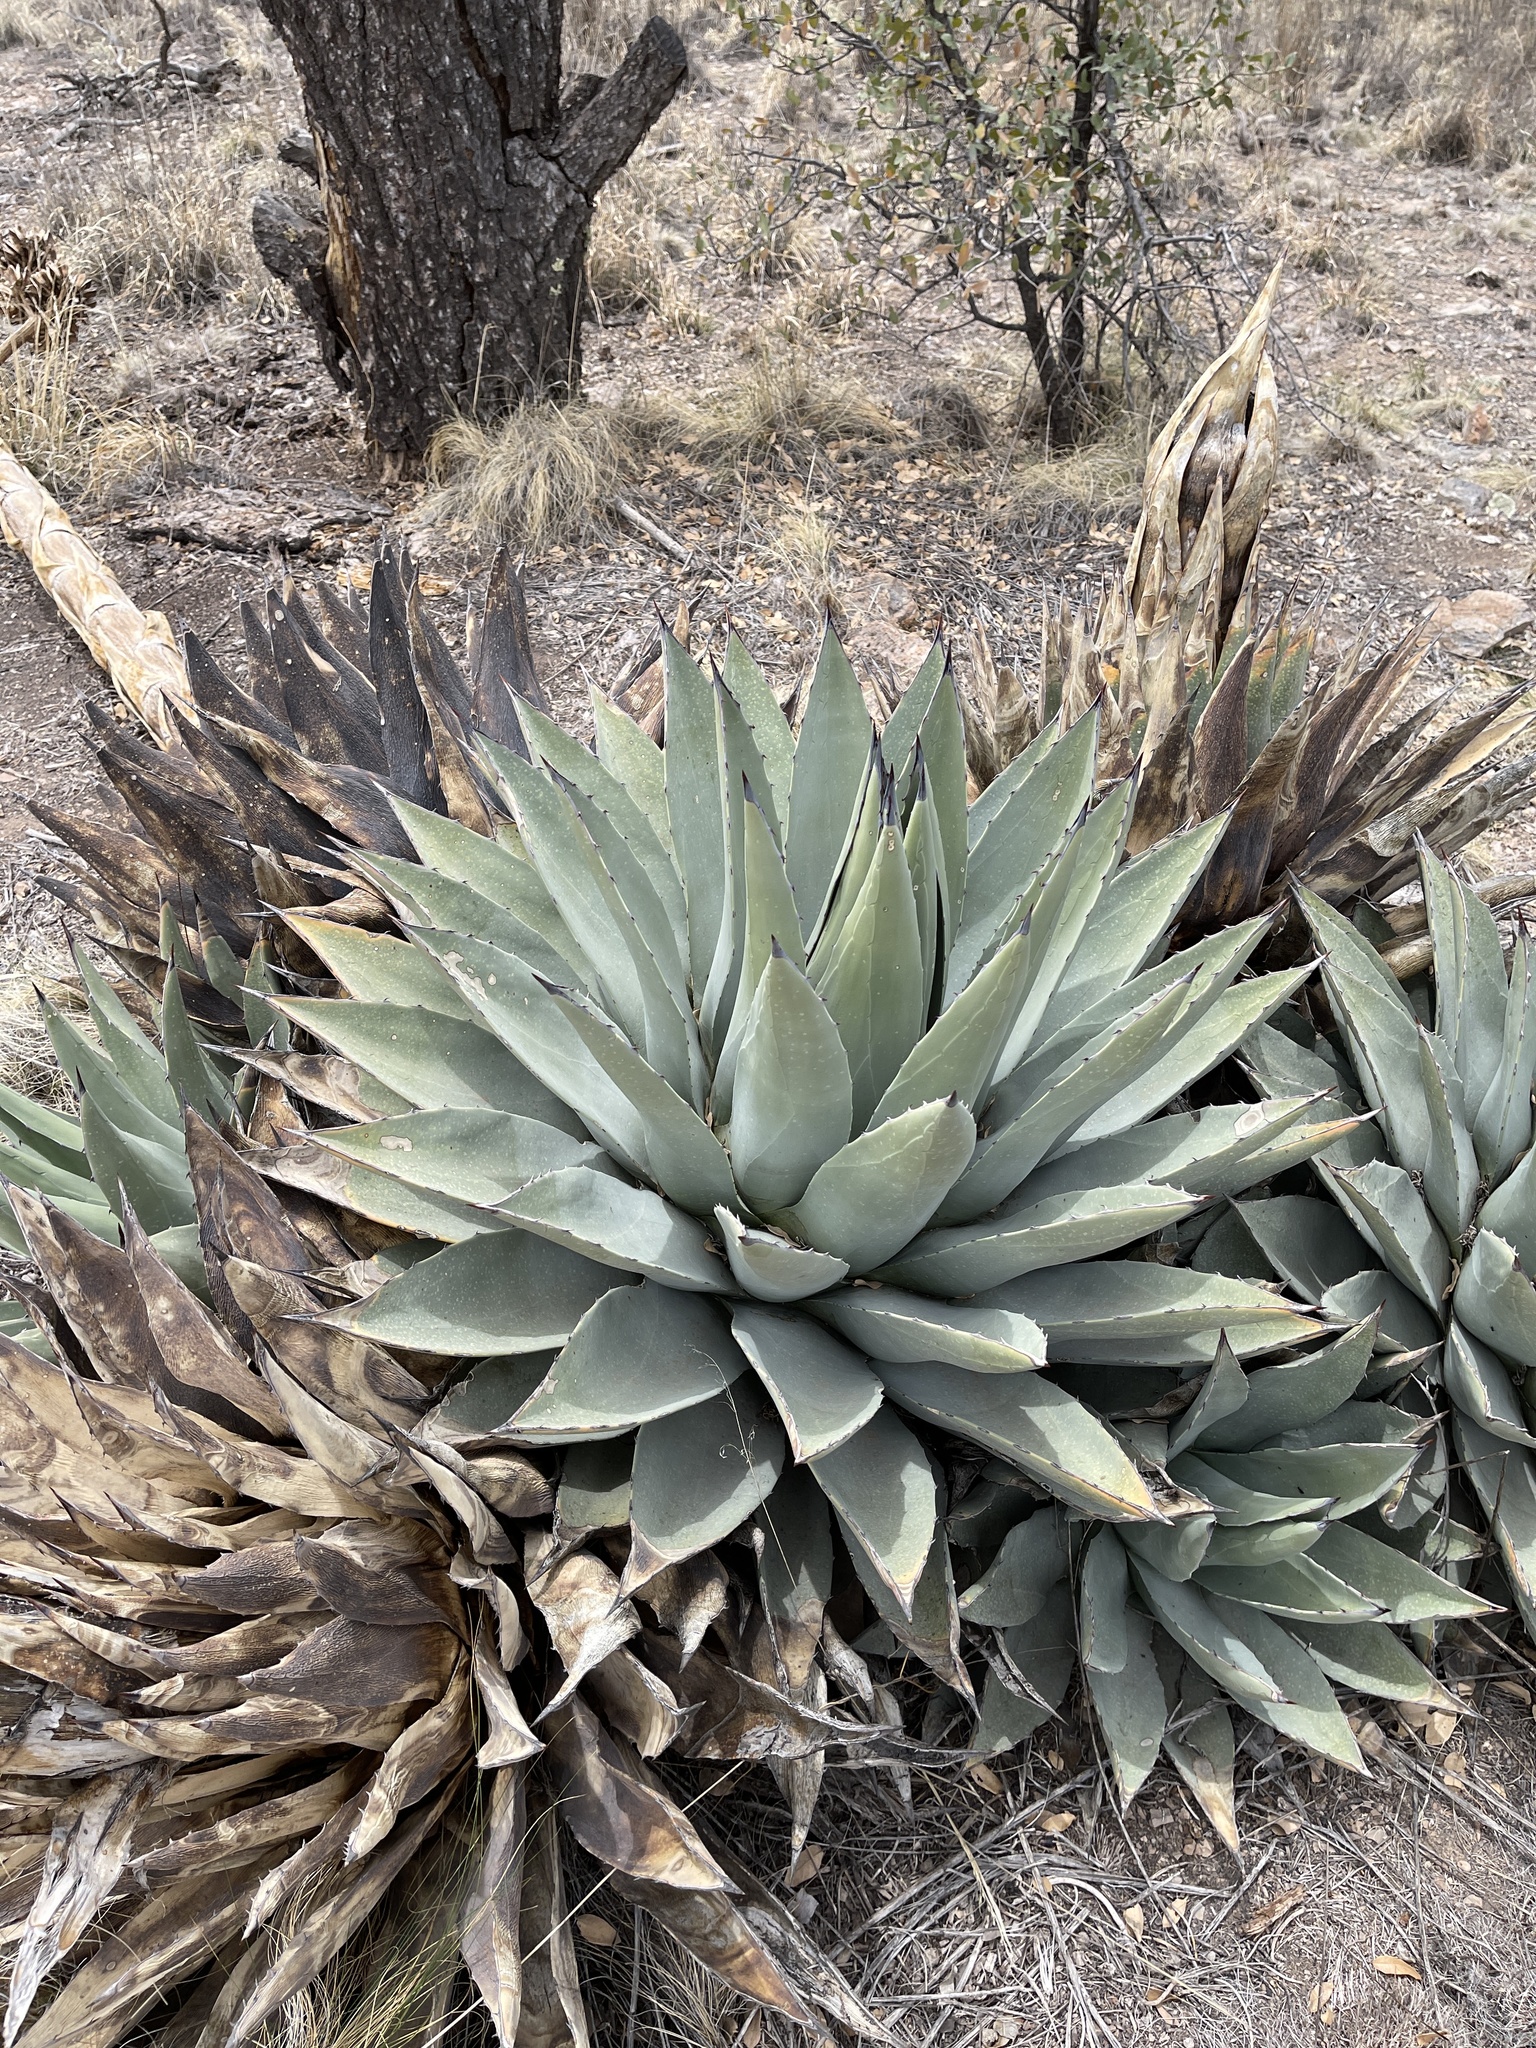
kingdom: Plantae
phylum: Tracheophyta
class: Liliopsida
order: Asparagales
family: Asparagaceae
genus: Agave
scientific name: Agave parryi
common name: Parry's agave
